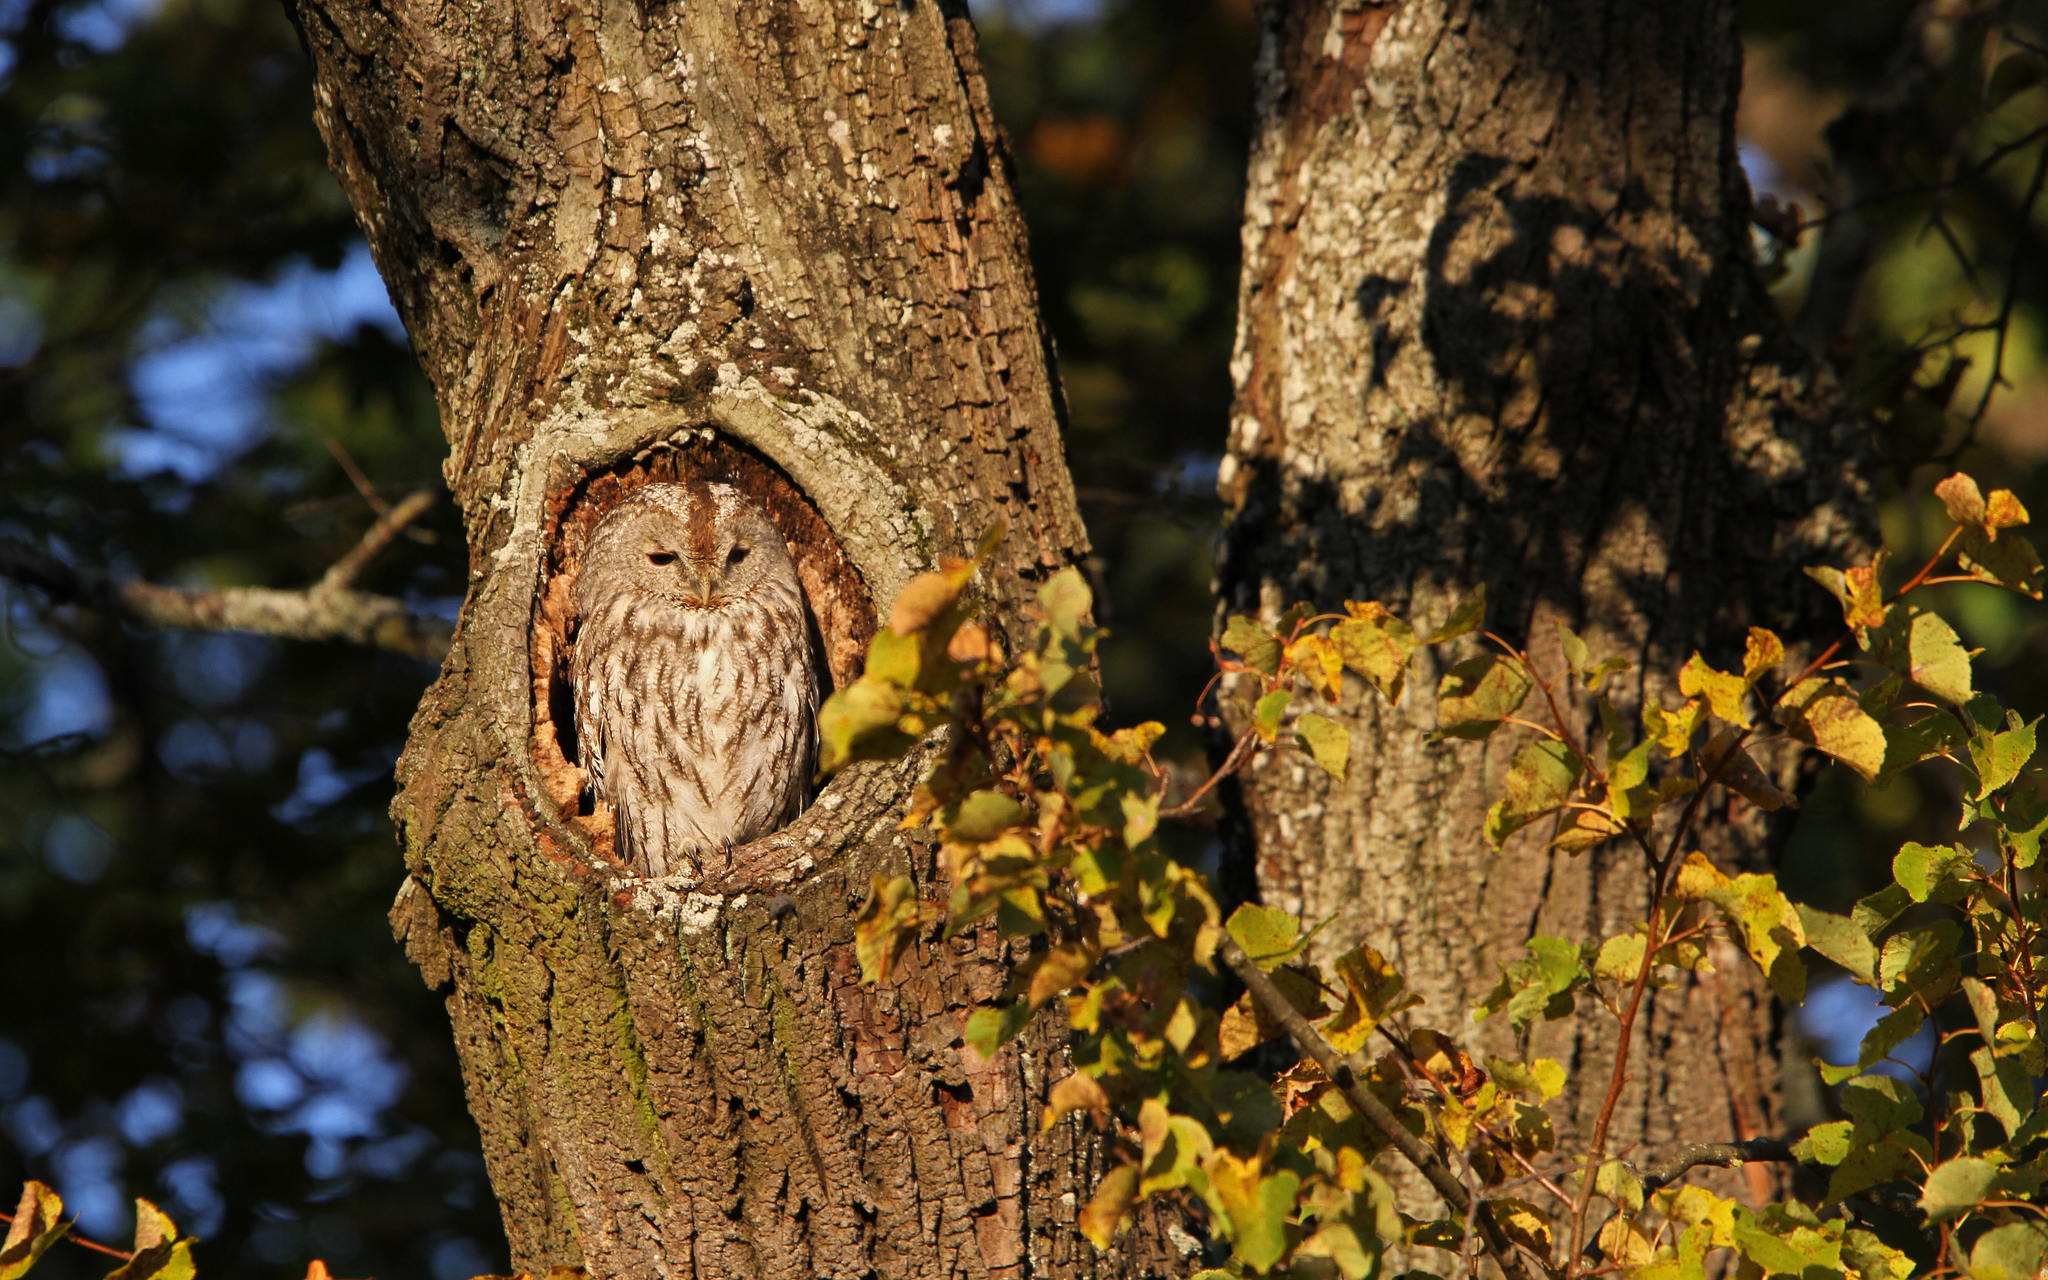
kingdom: Animalia
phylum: Chordata
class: Aves
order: Strigiformes
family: Strigidae
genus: Strix
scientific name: Strix aluco
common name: Tawny owl
